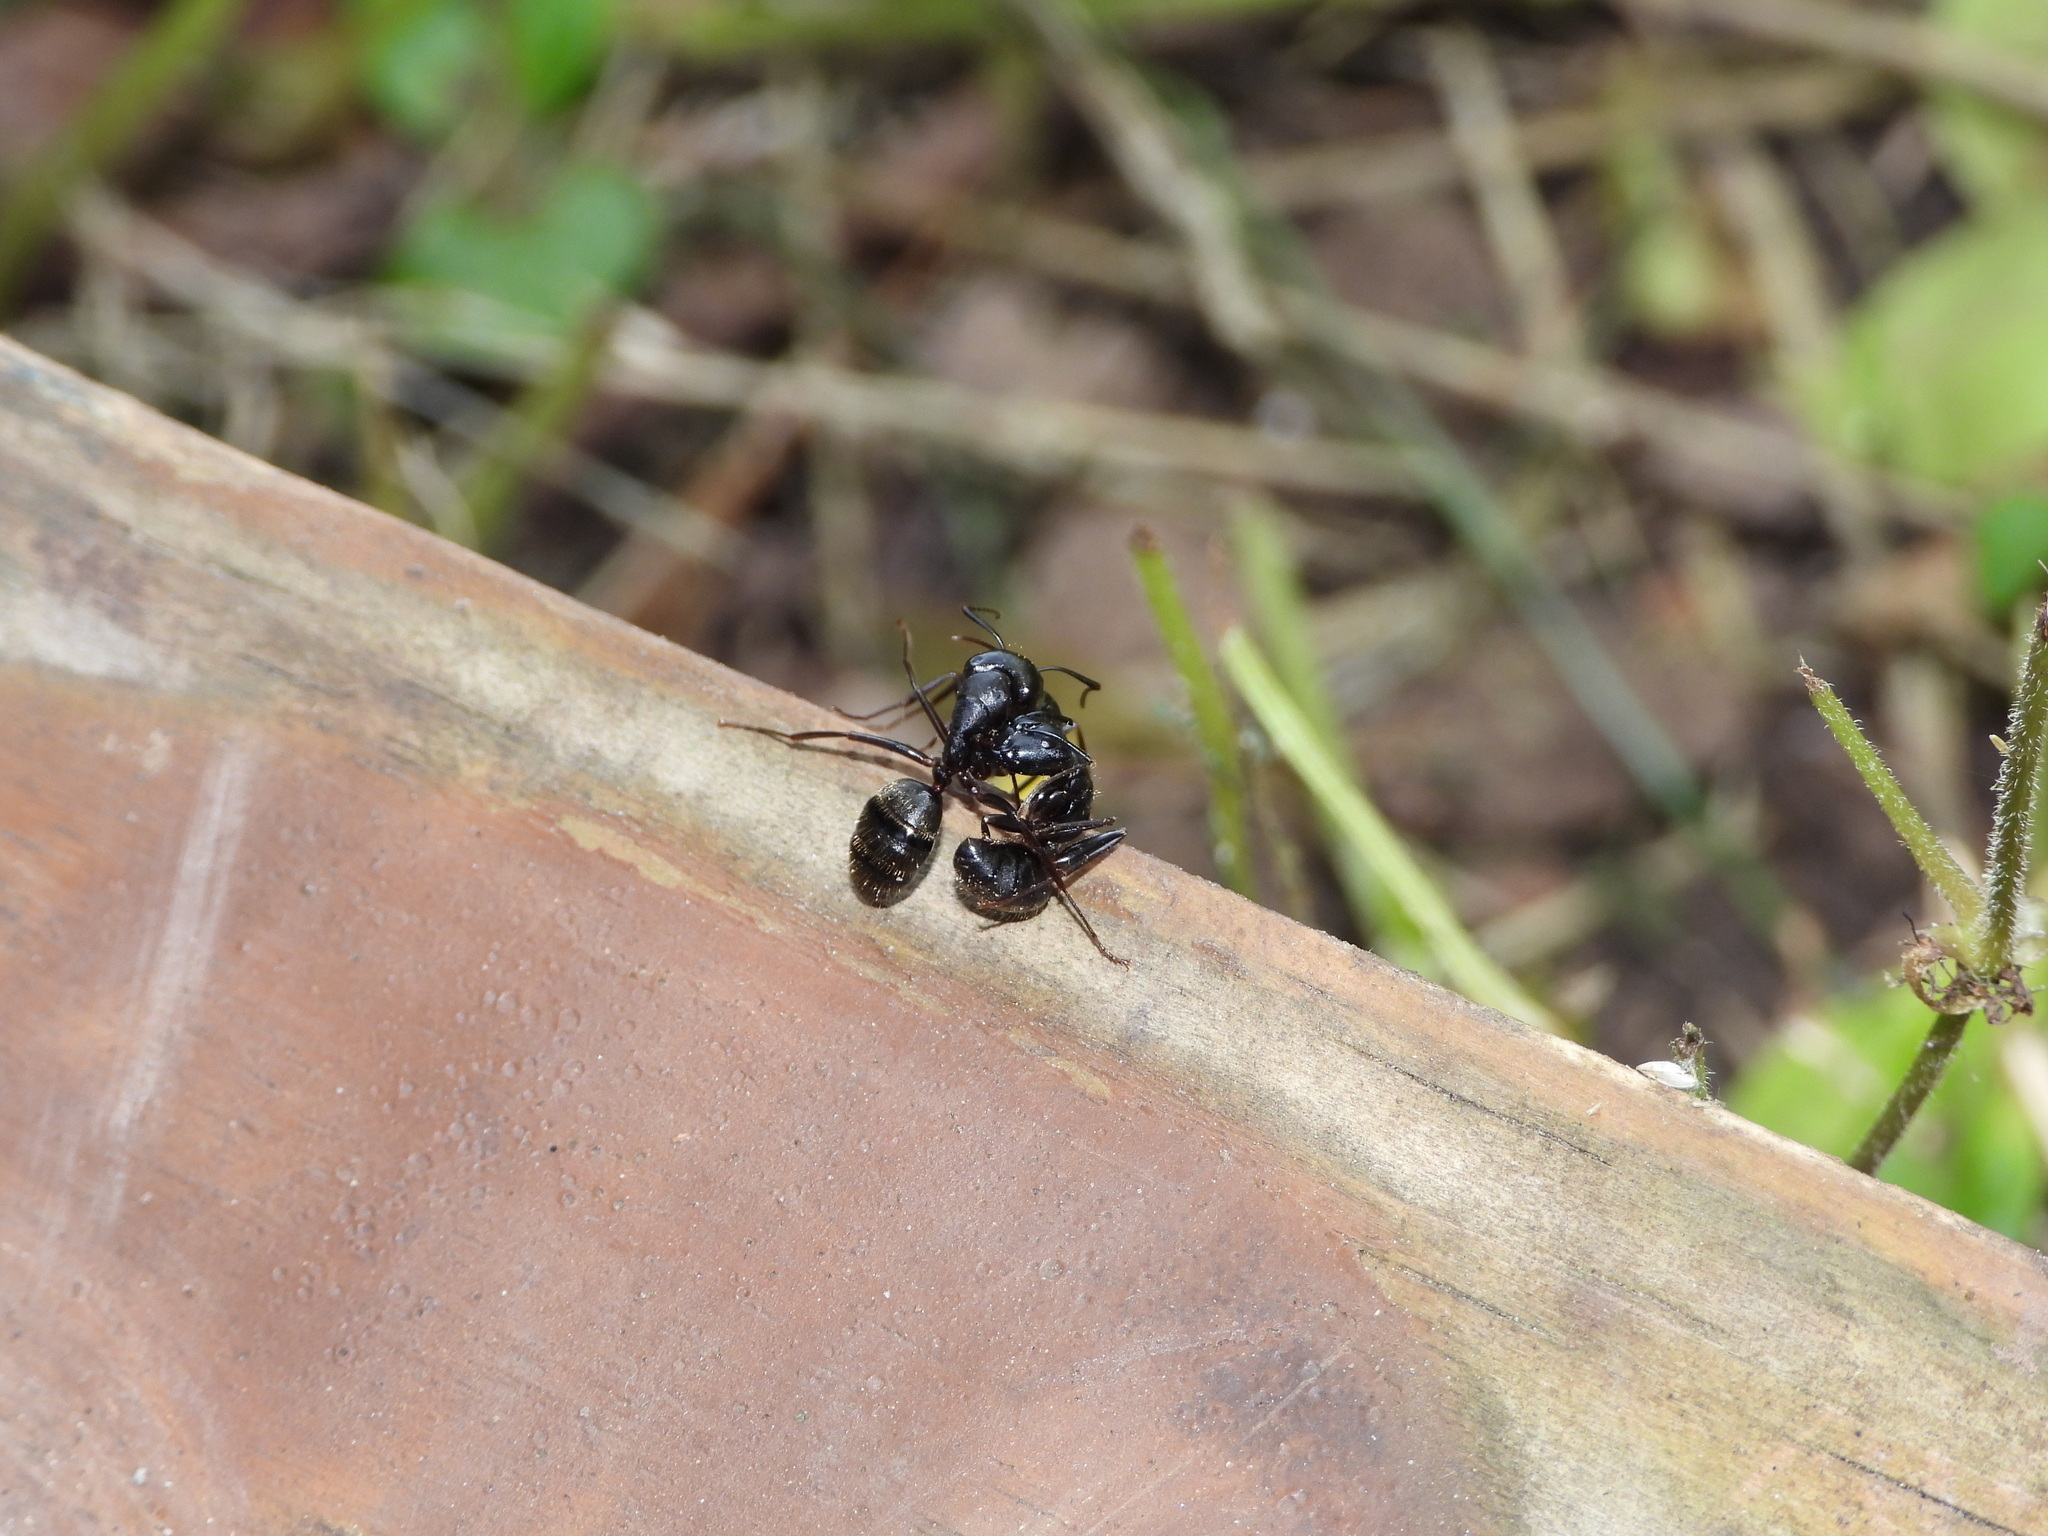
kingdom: Animalia
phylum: Arthropoda
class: Insecta
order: Hymenoptera
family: Formicidae
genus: Camponotus
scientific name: Camponotus pennsylvanicus
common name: Black carpenter ant
